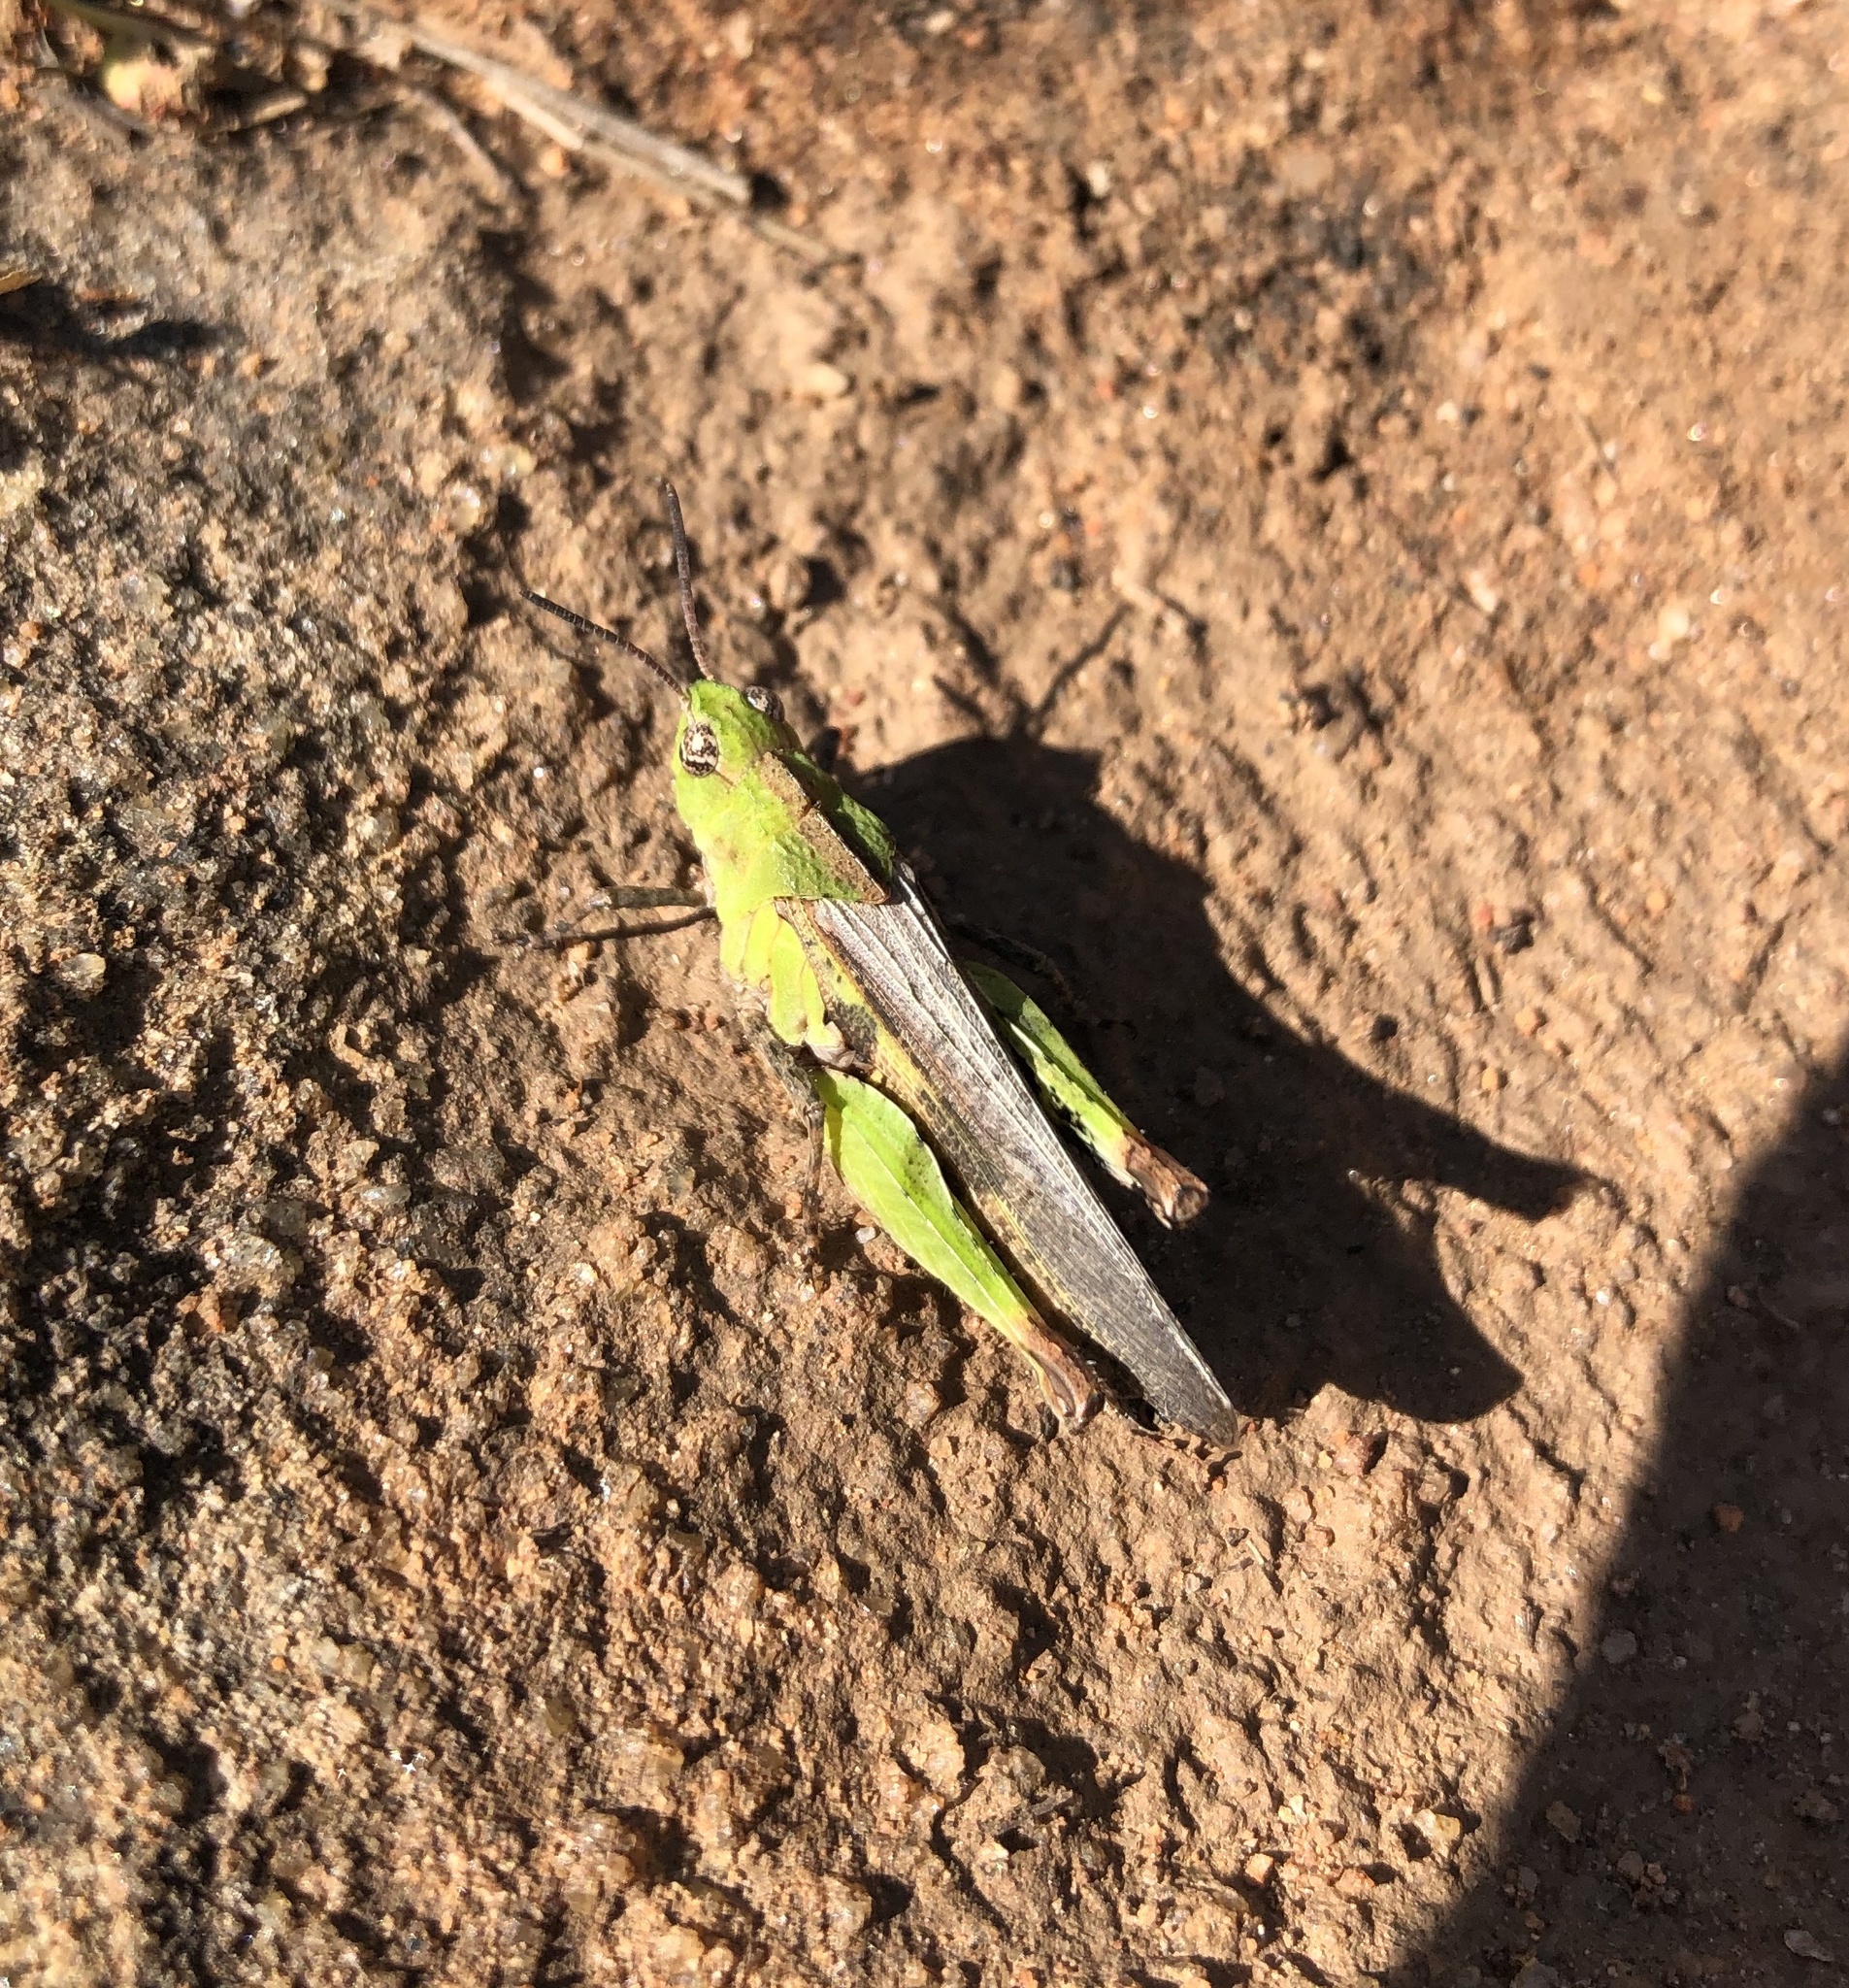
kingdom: Animalia
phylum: Arthropoda
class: Insecta
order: Orthoptera
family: Acrididae
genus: Chimarocephala
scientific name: Chimarocephala pacifica
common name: Painted meadow grasshopper
